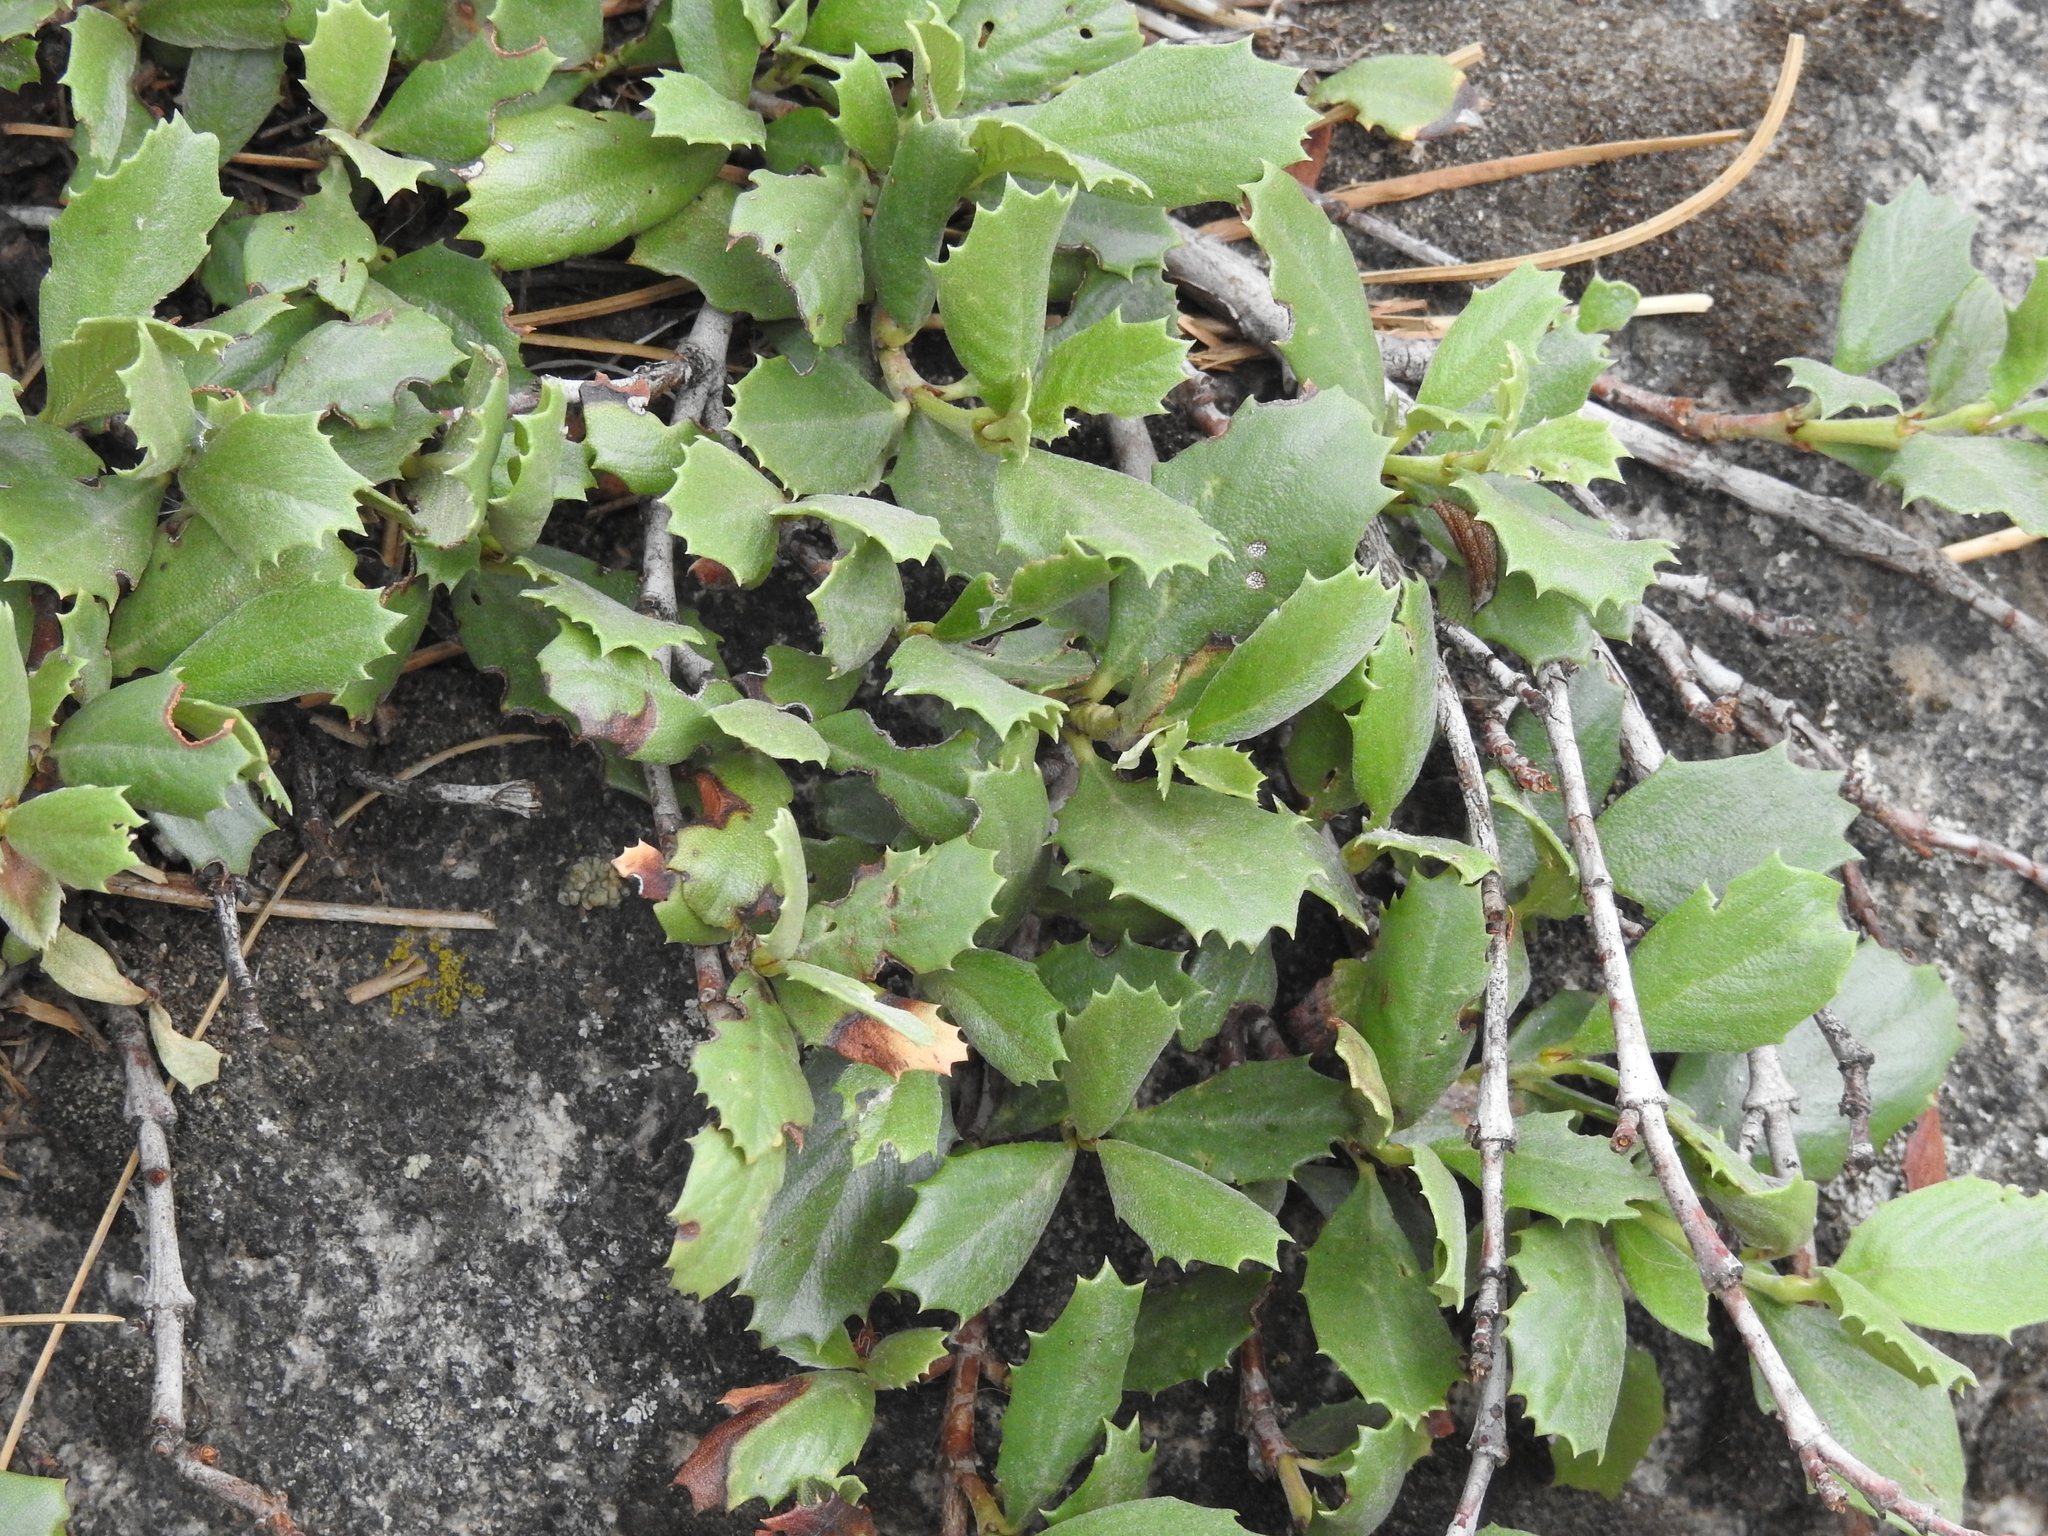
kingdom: Plantae
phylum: Tracheophyta
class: Magnoliopsida
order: Rosales
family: Rhamnaceae
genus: Ceanothus
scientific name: Ceanothus prostratus
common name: Mahala-mat
